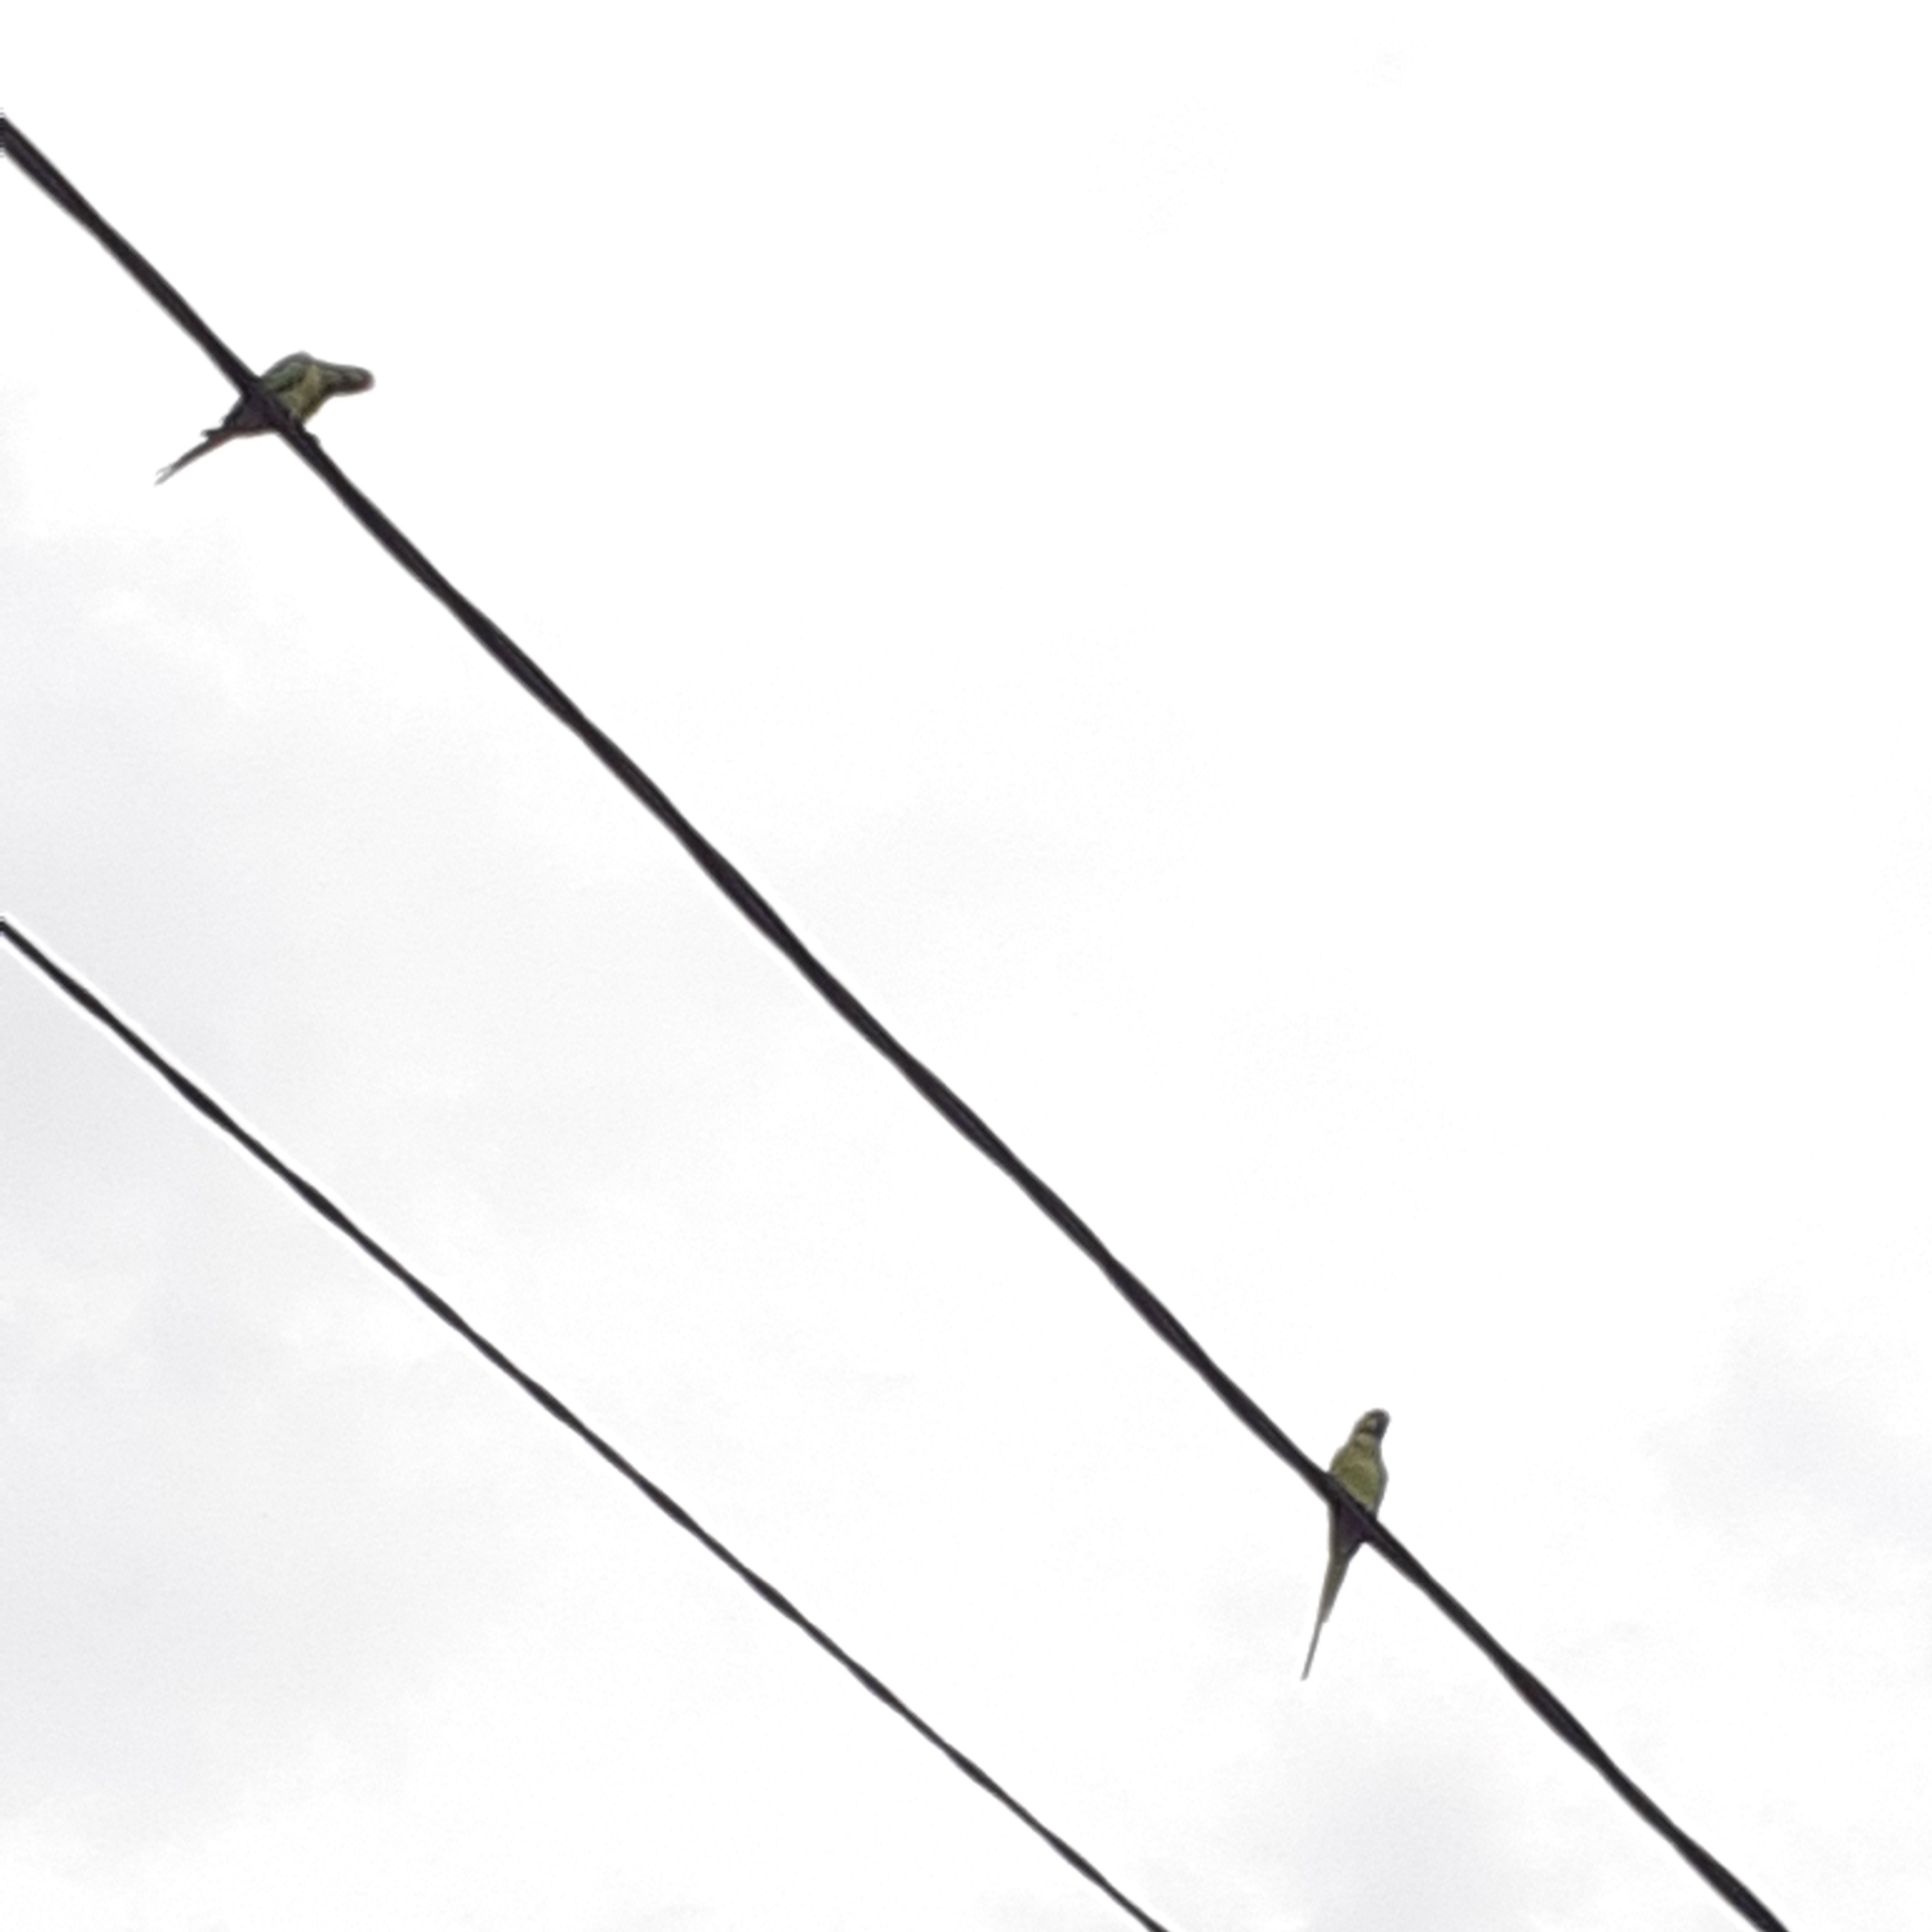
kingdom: Animalia
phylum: Chordata
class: Aves
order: Psittaciformes
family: Psittacidae
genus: Psittacula
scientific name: Psittacula krameri
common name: Rose-ringed parakeet
